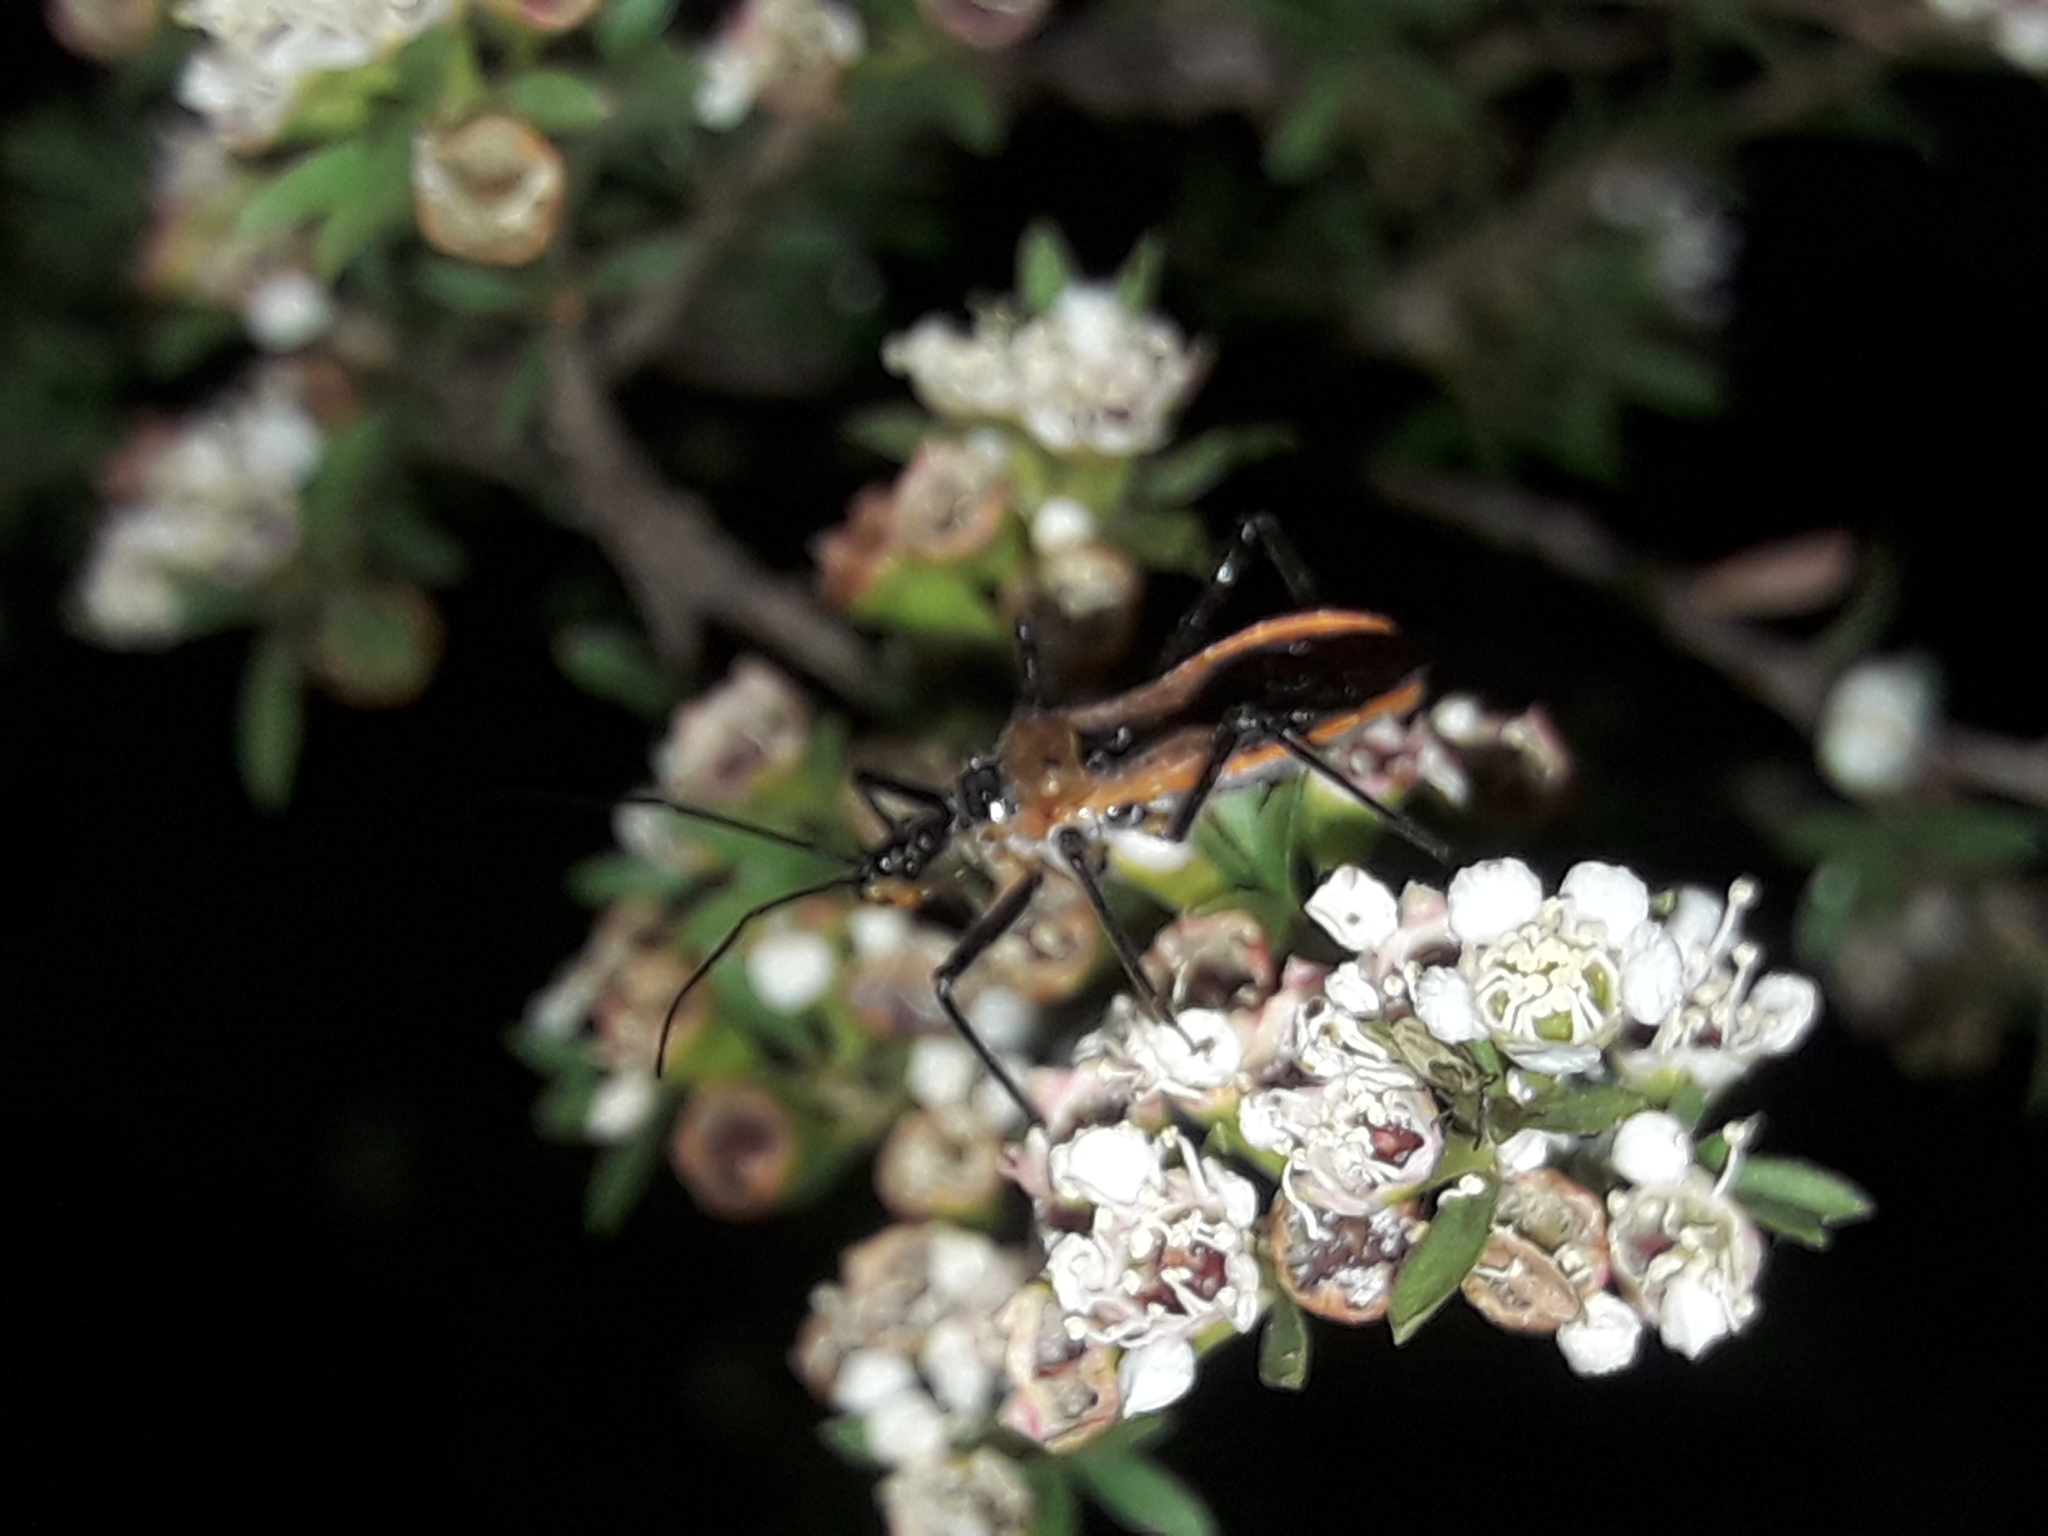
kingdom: Animalia
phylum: Arthropoda
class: Insecta
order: Hemiptera
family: Reduviidae
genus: Gminatus
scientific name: Gminatus australis
